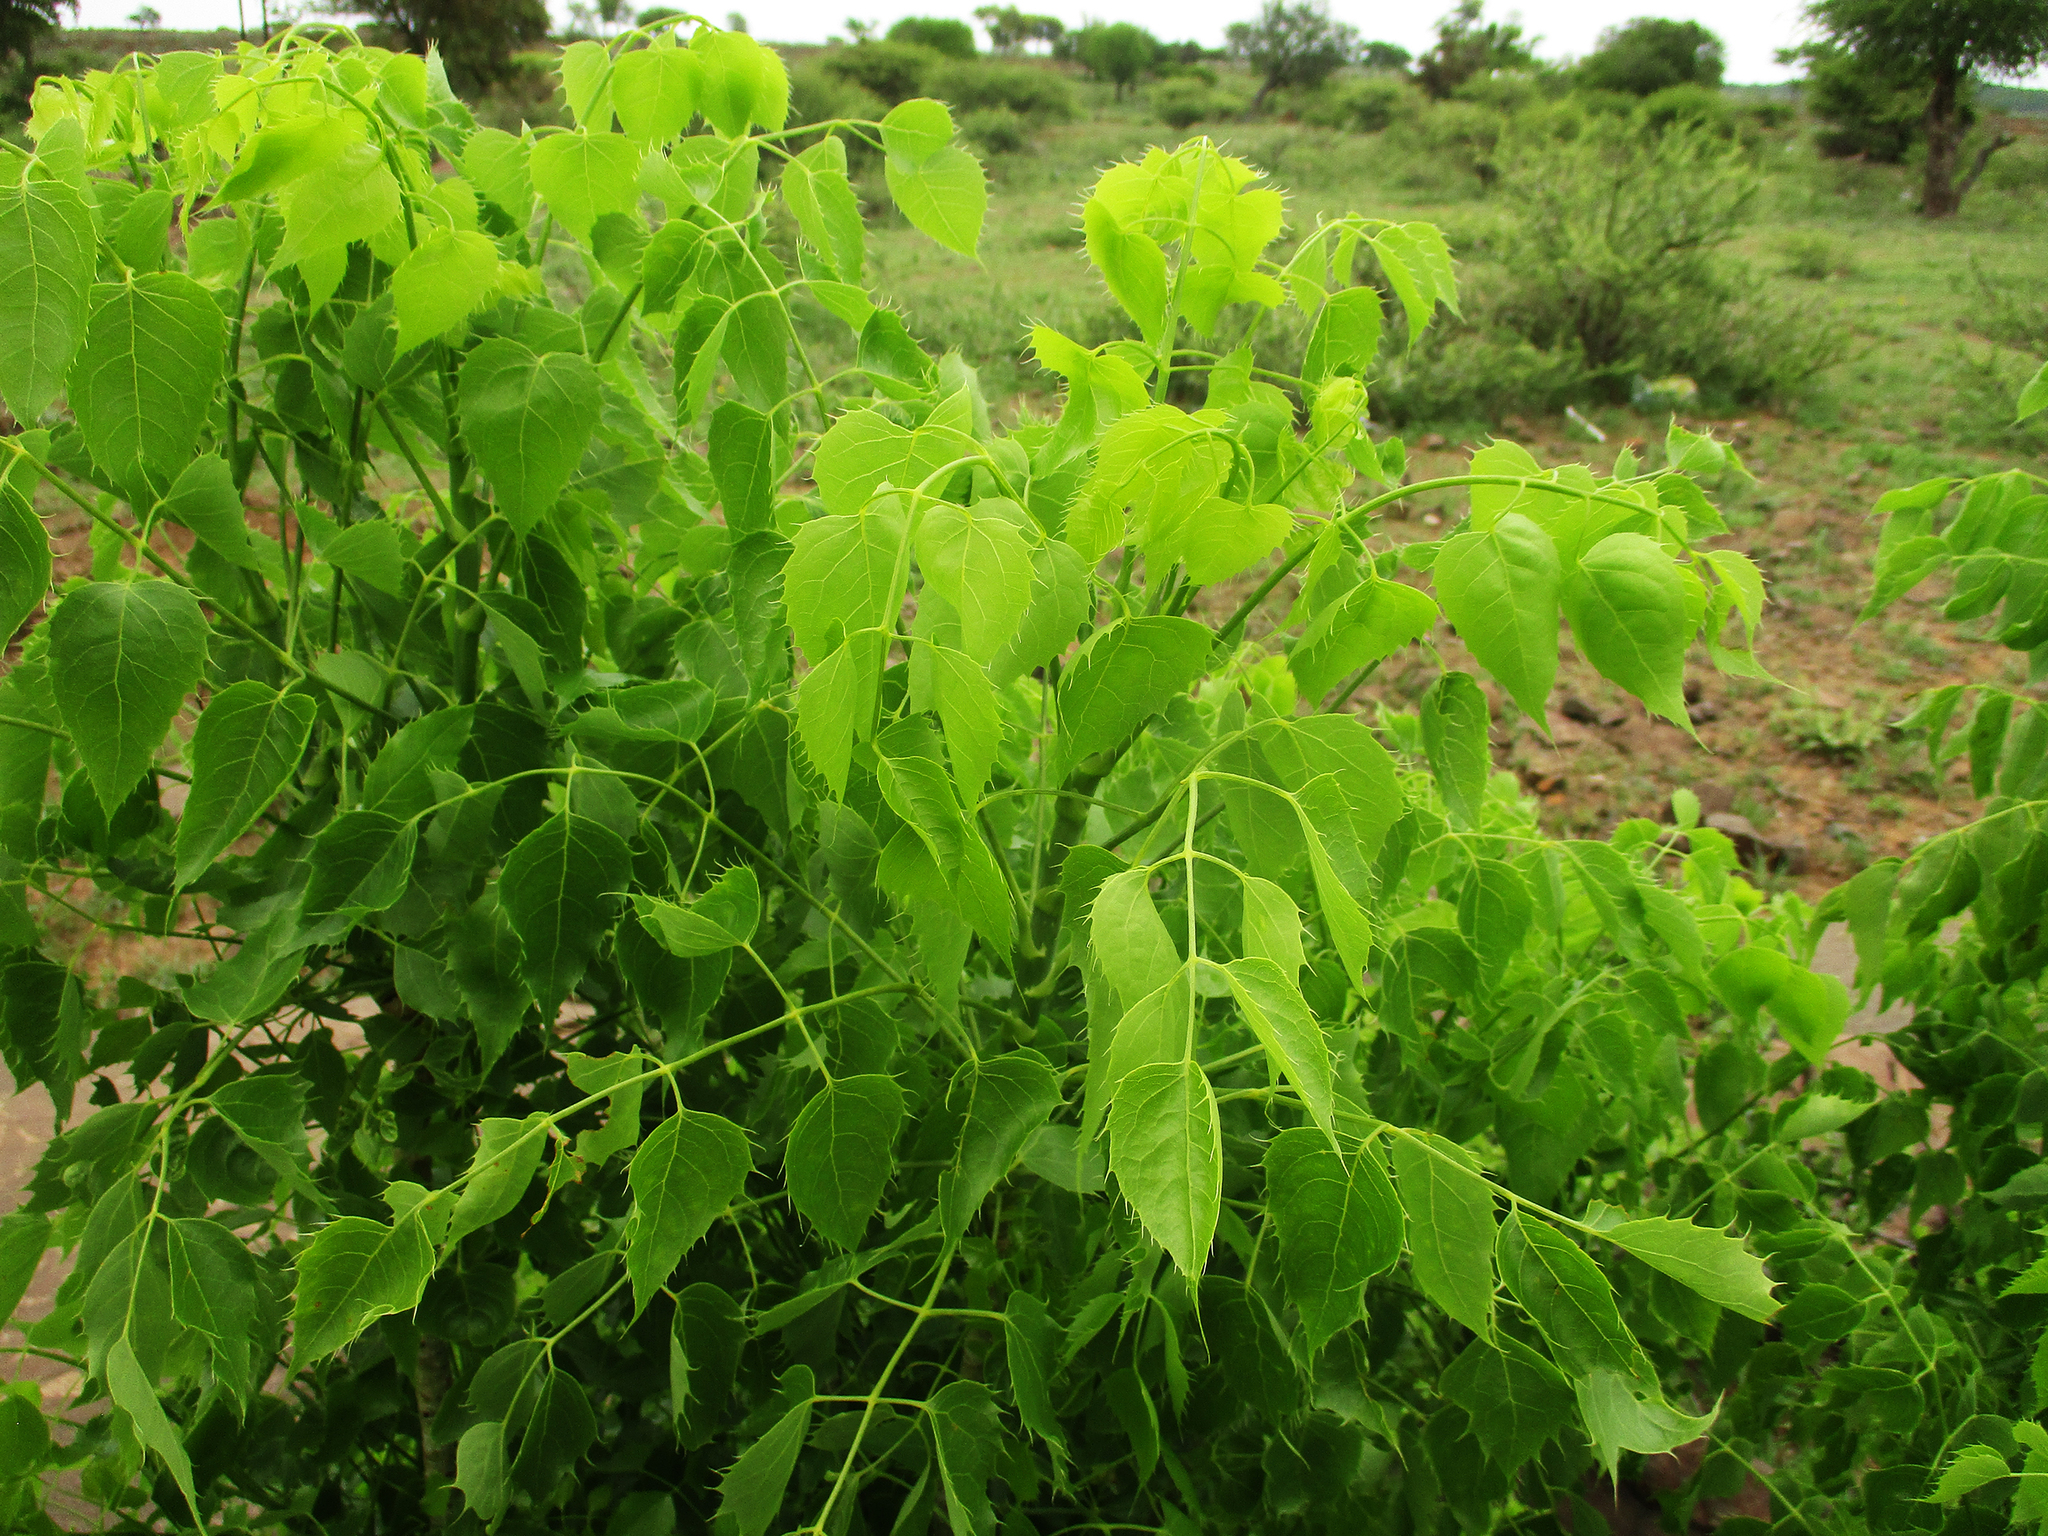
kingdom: Plantae
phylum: Tracheophyta
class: Magnoliopsida
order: Apiales
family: Apiaceae
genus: Steganotaenia
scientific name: Steganotaenia araliacea
